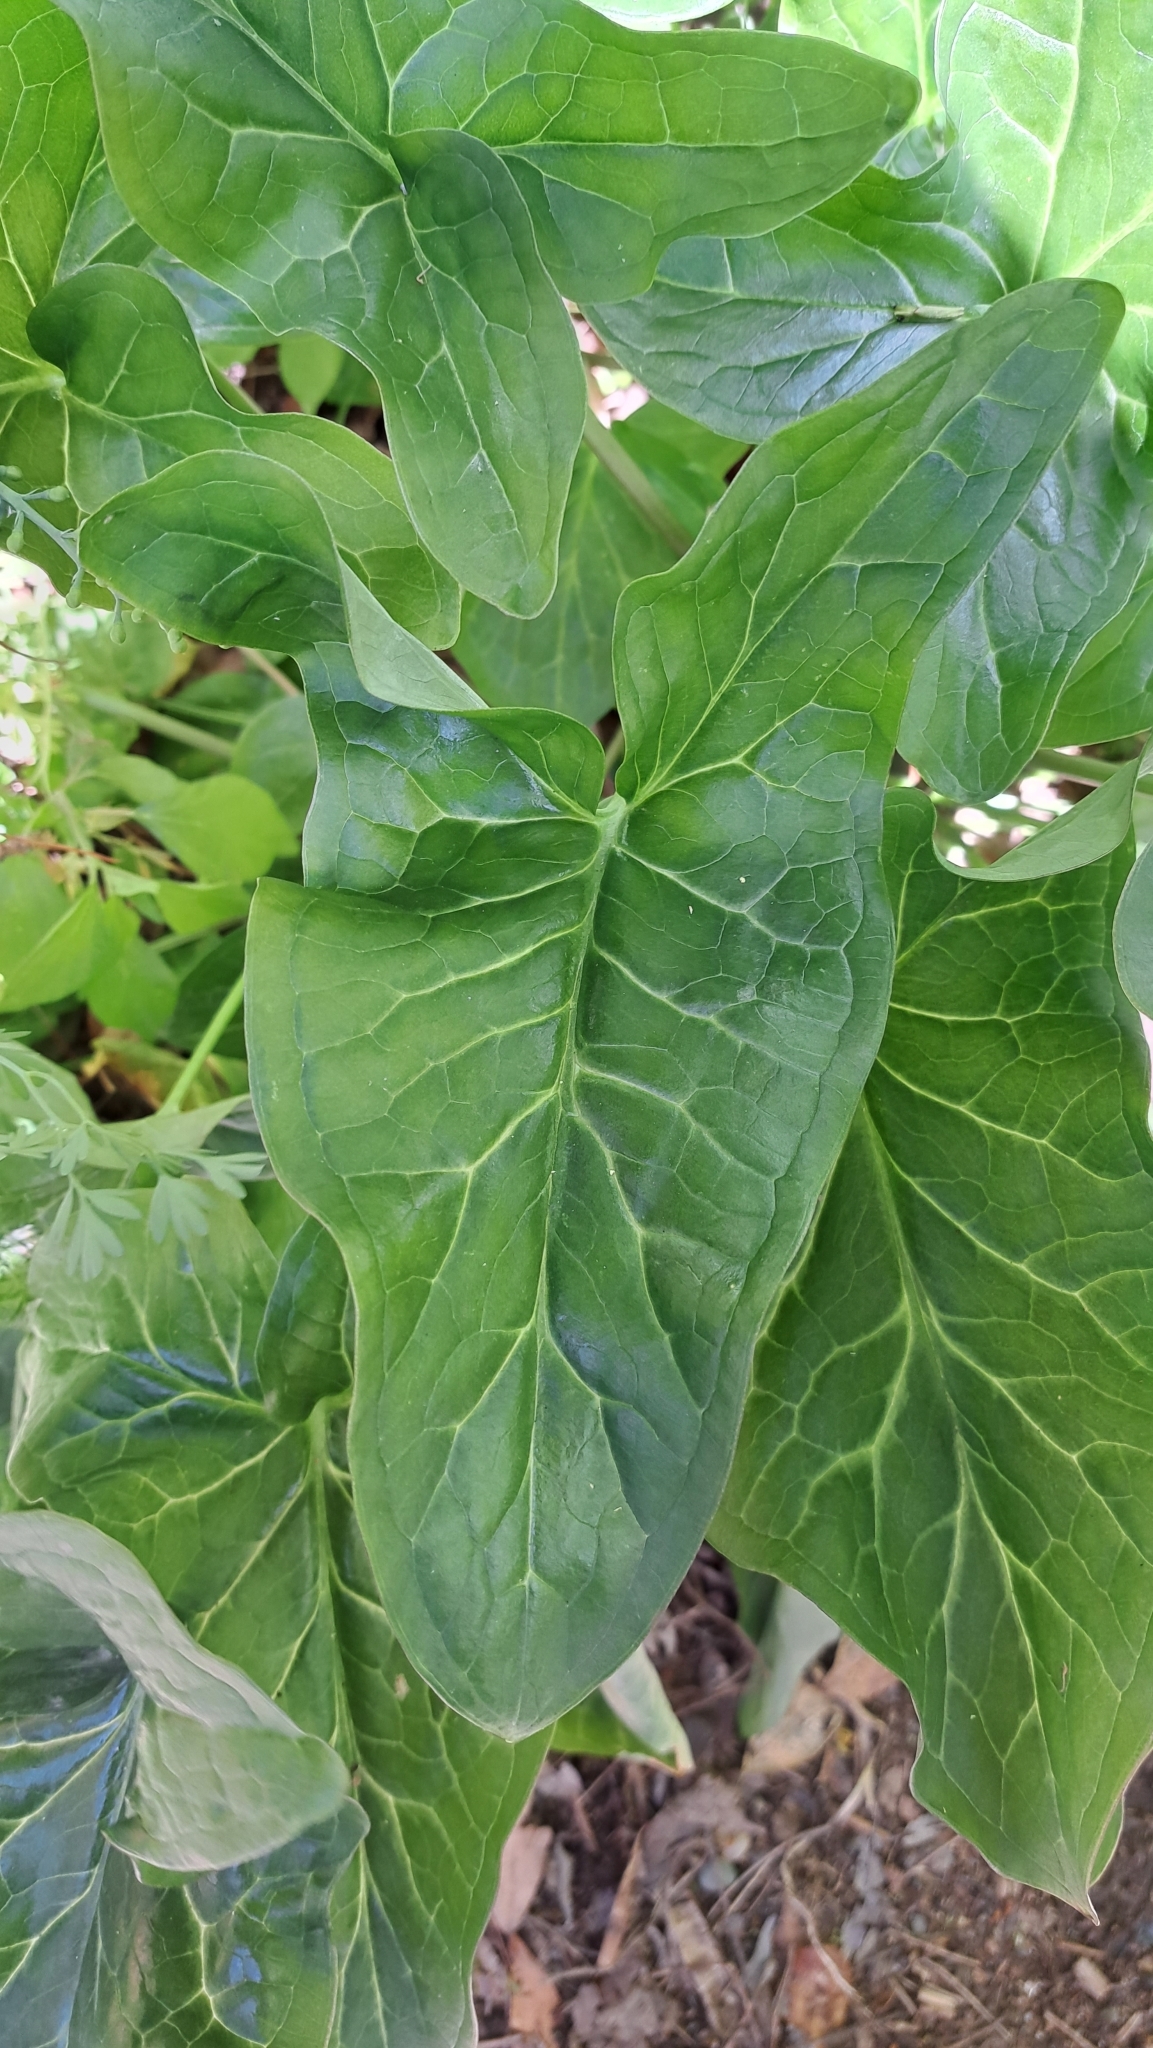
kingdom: Plantae
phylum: Tracheophyta
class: Liliopsida
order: Alismatales
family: Araceae
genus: Arum
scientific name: Arum italicum
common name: Italian lords-and-ladies
